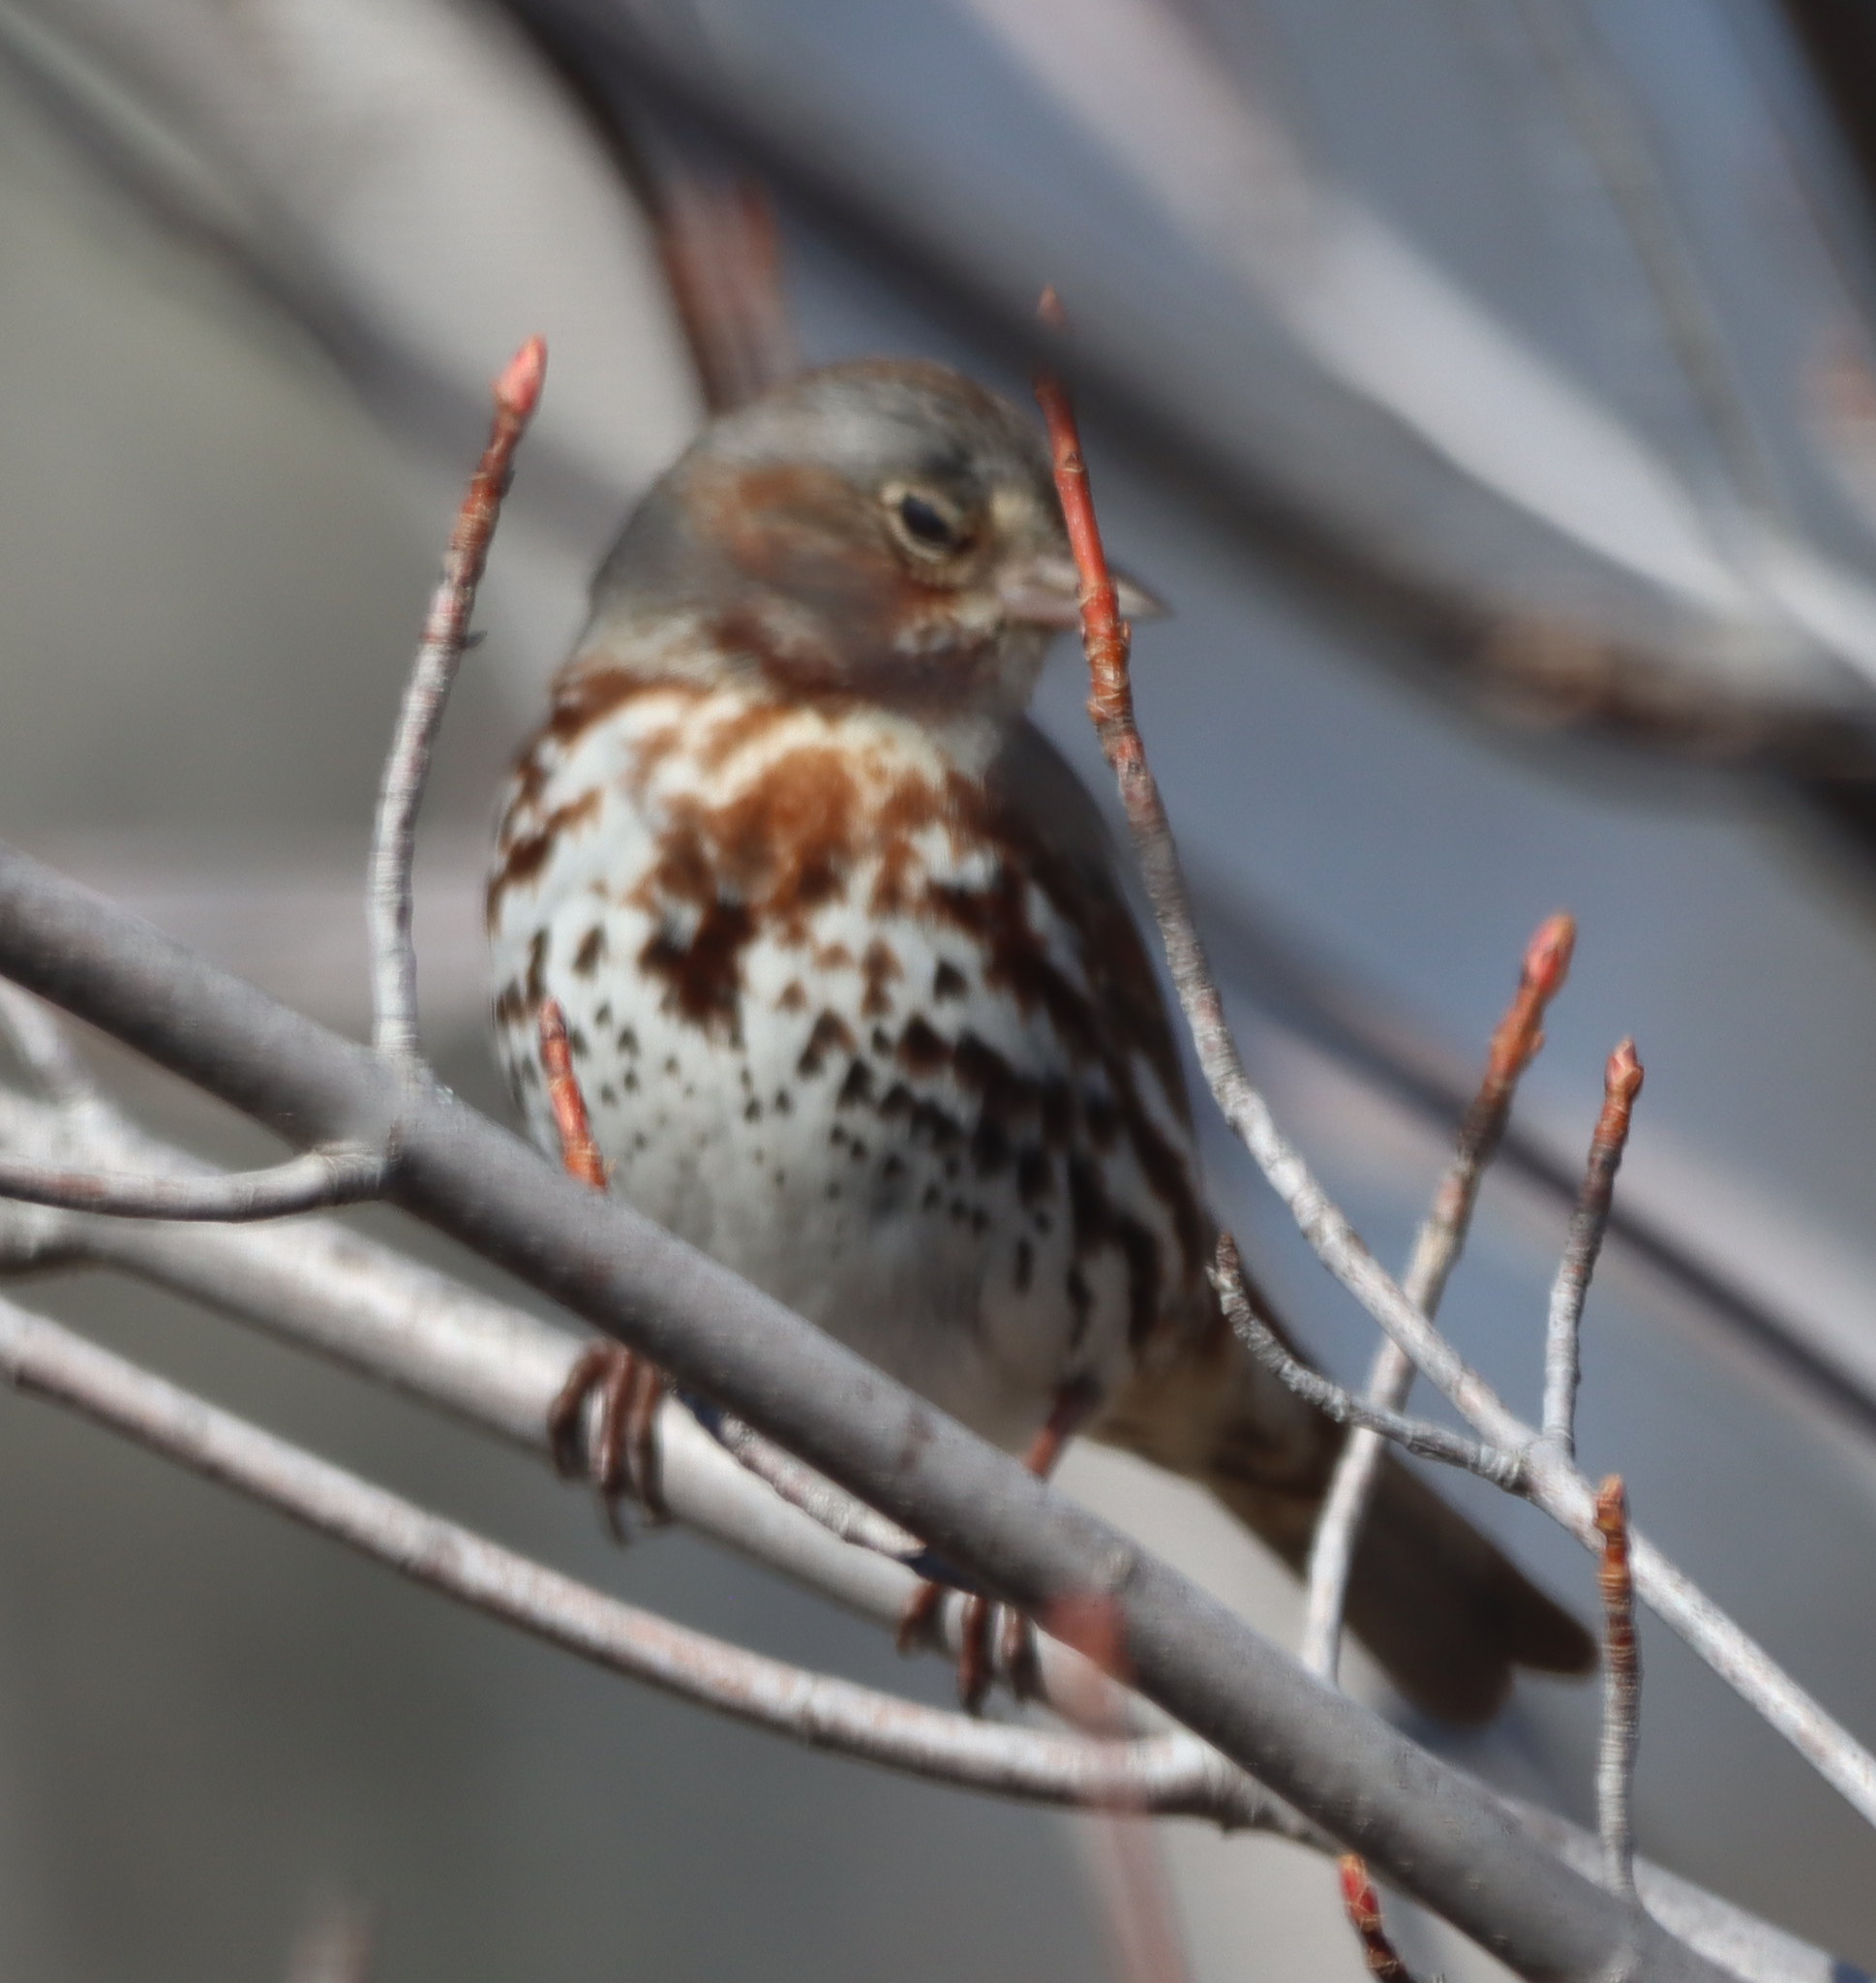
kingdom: Animalia
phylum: Chordata
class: Aves
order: Passeriformes
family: Passerellidae
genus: Passerella
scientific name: Passerella iliaca
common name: Fox sparrow
